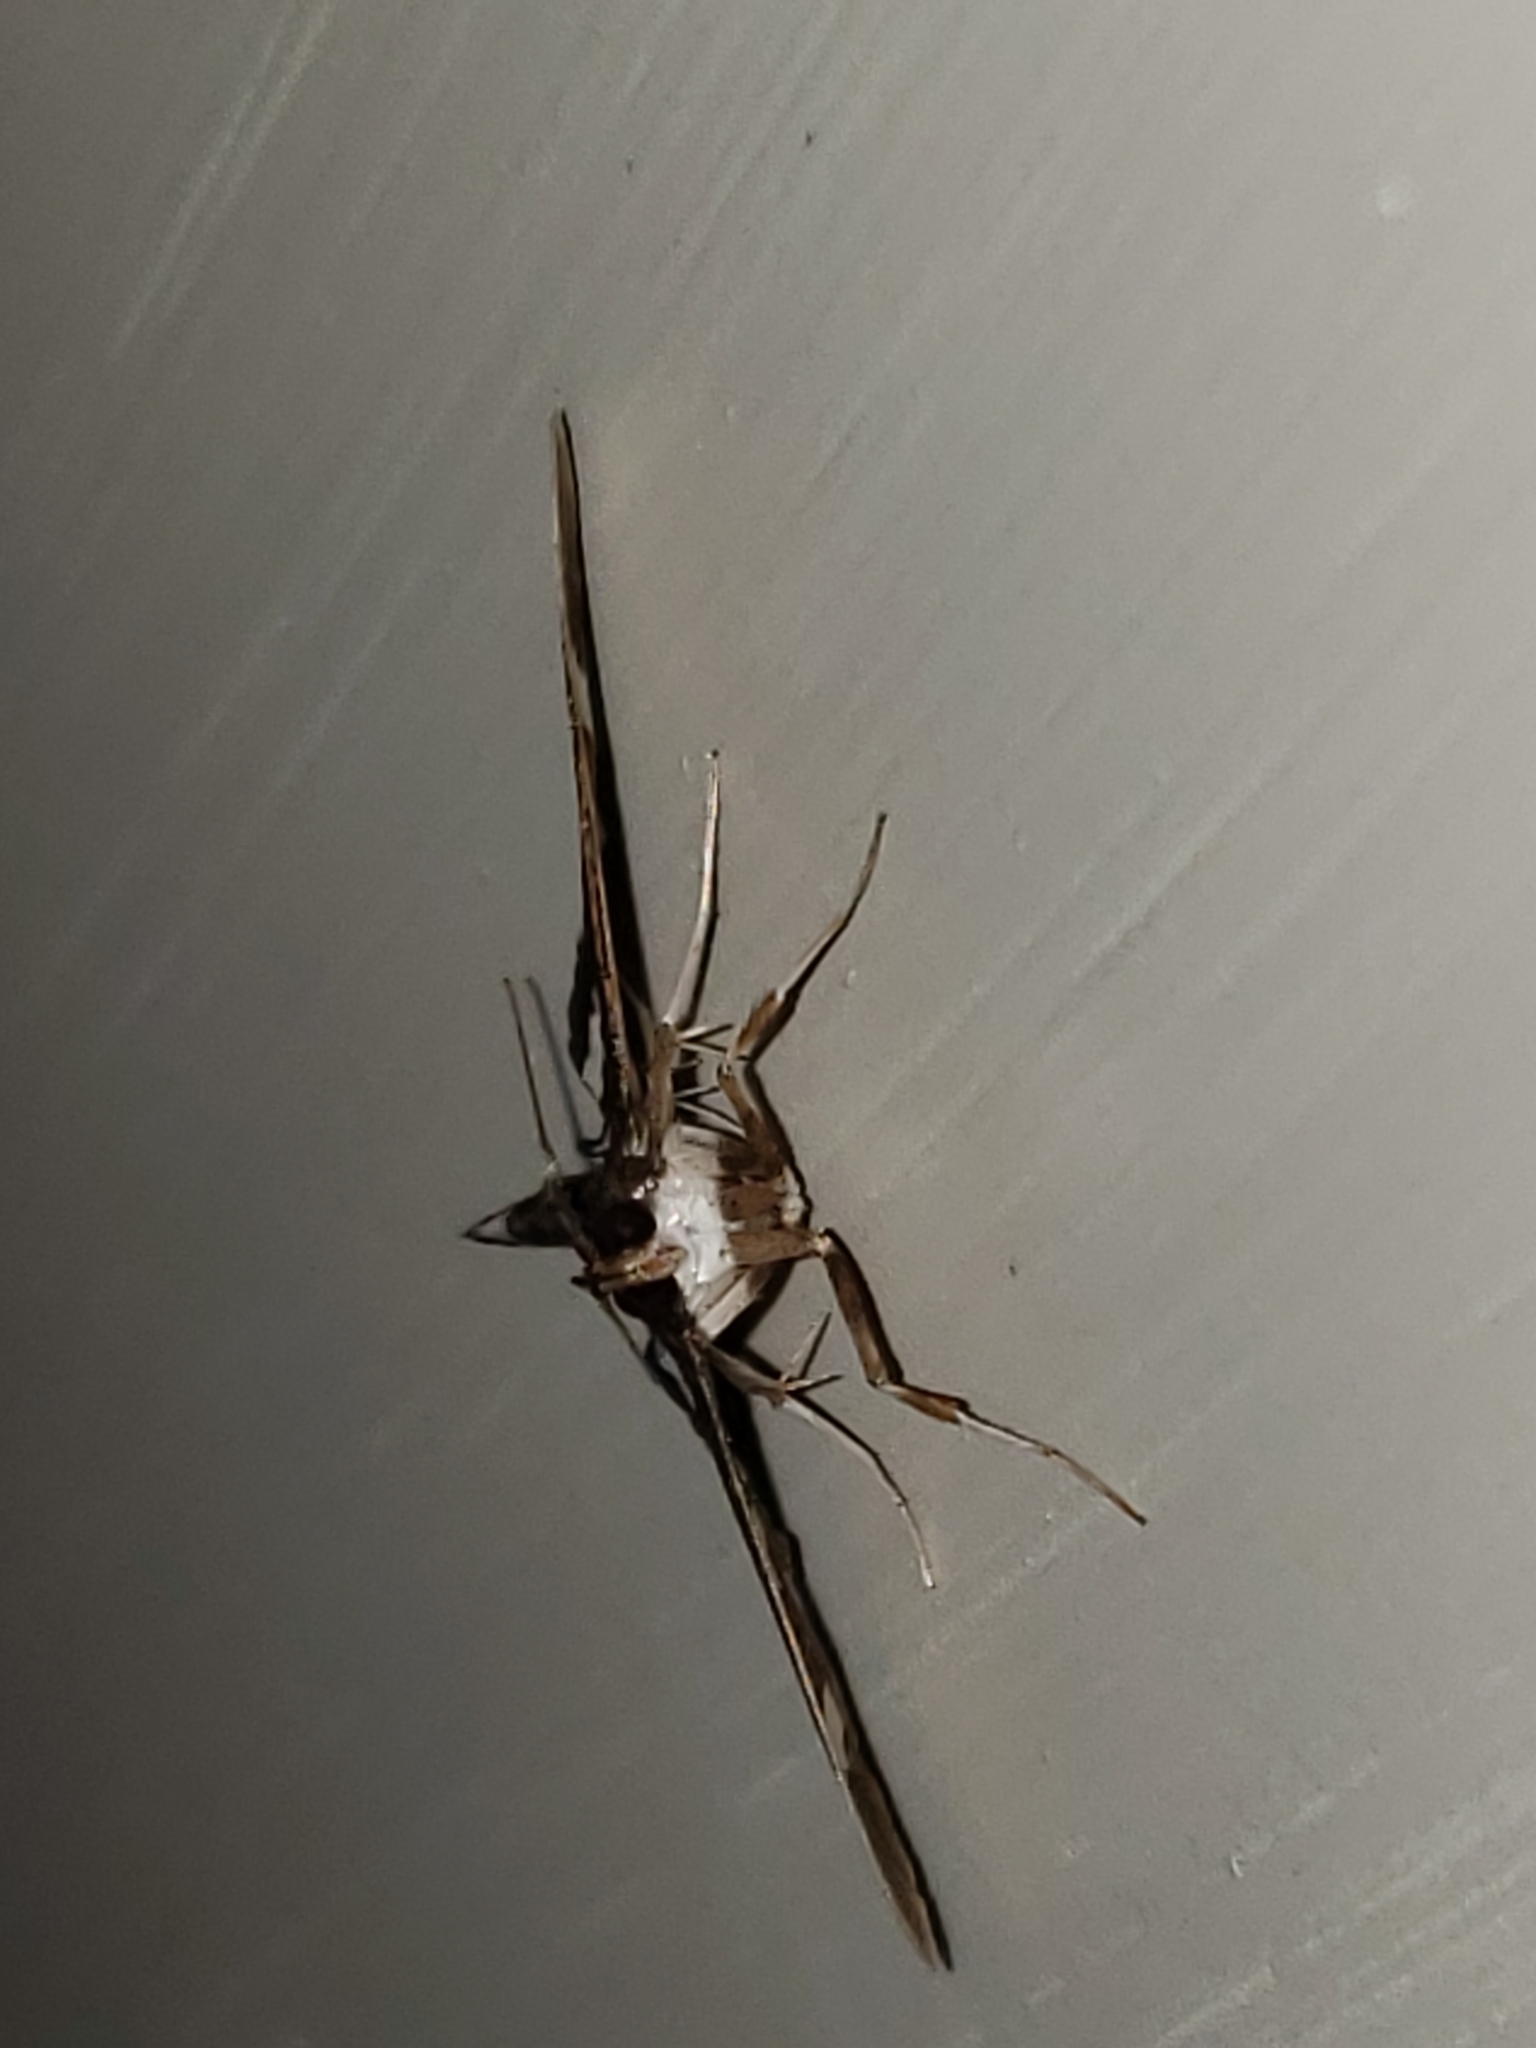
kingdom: Animalia
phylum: Arthropoda
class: Insecta
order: Lepidoptera
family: Crambidae
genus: Desmia
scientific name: Desmia
